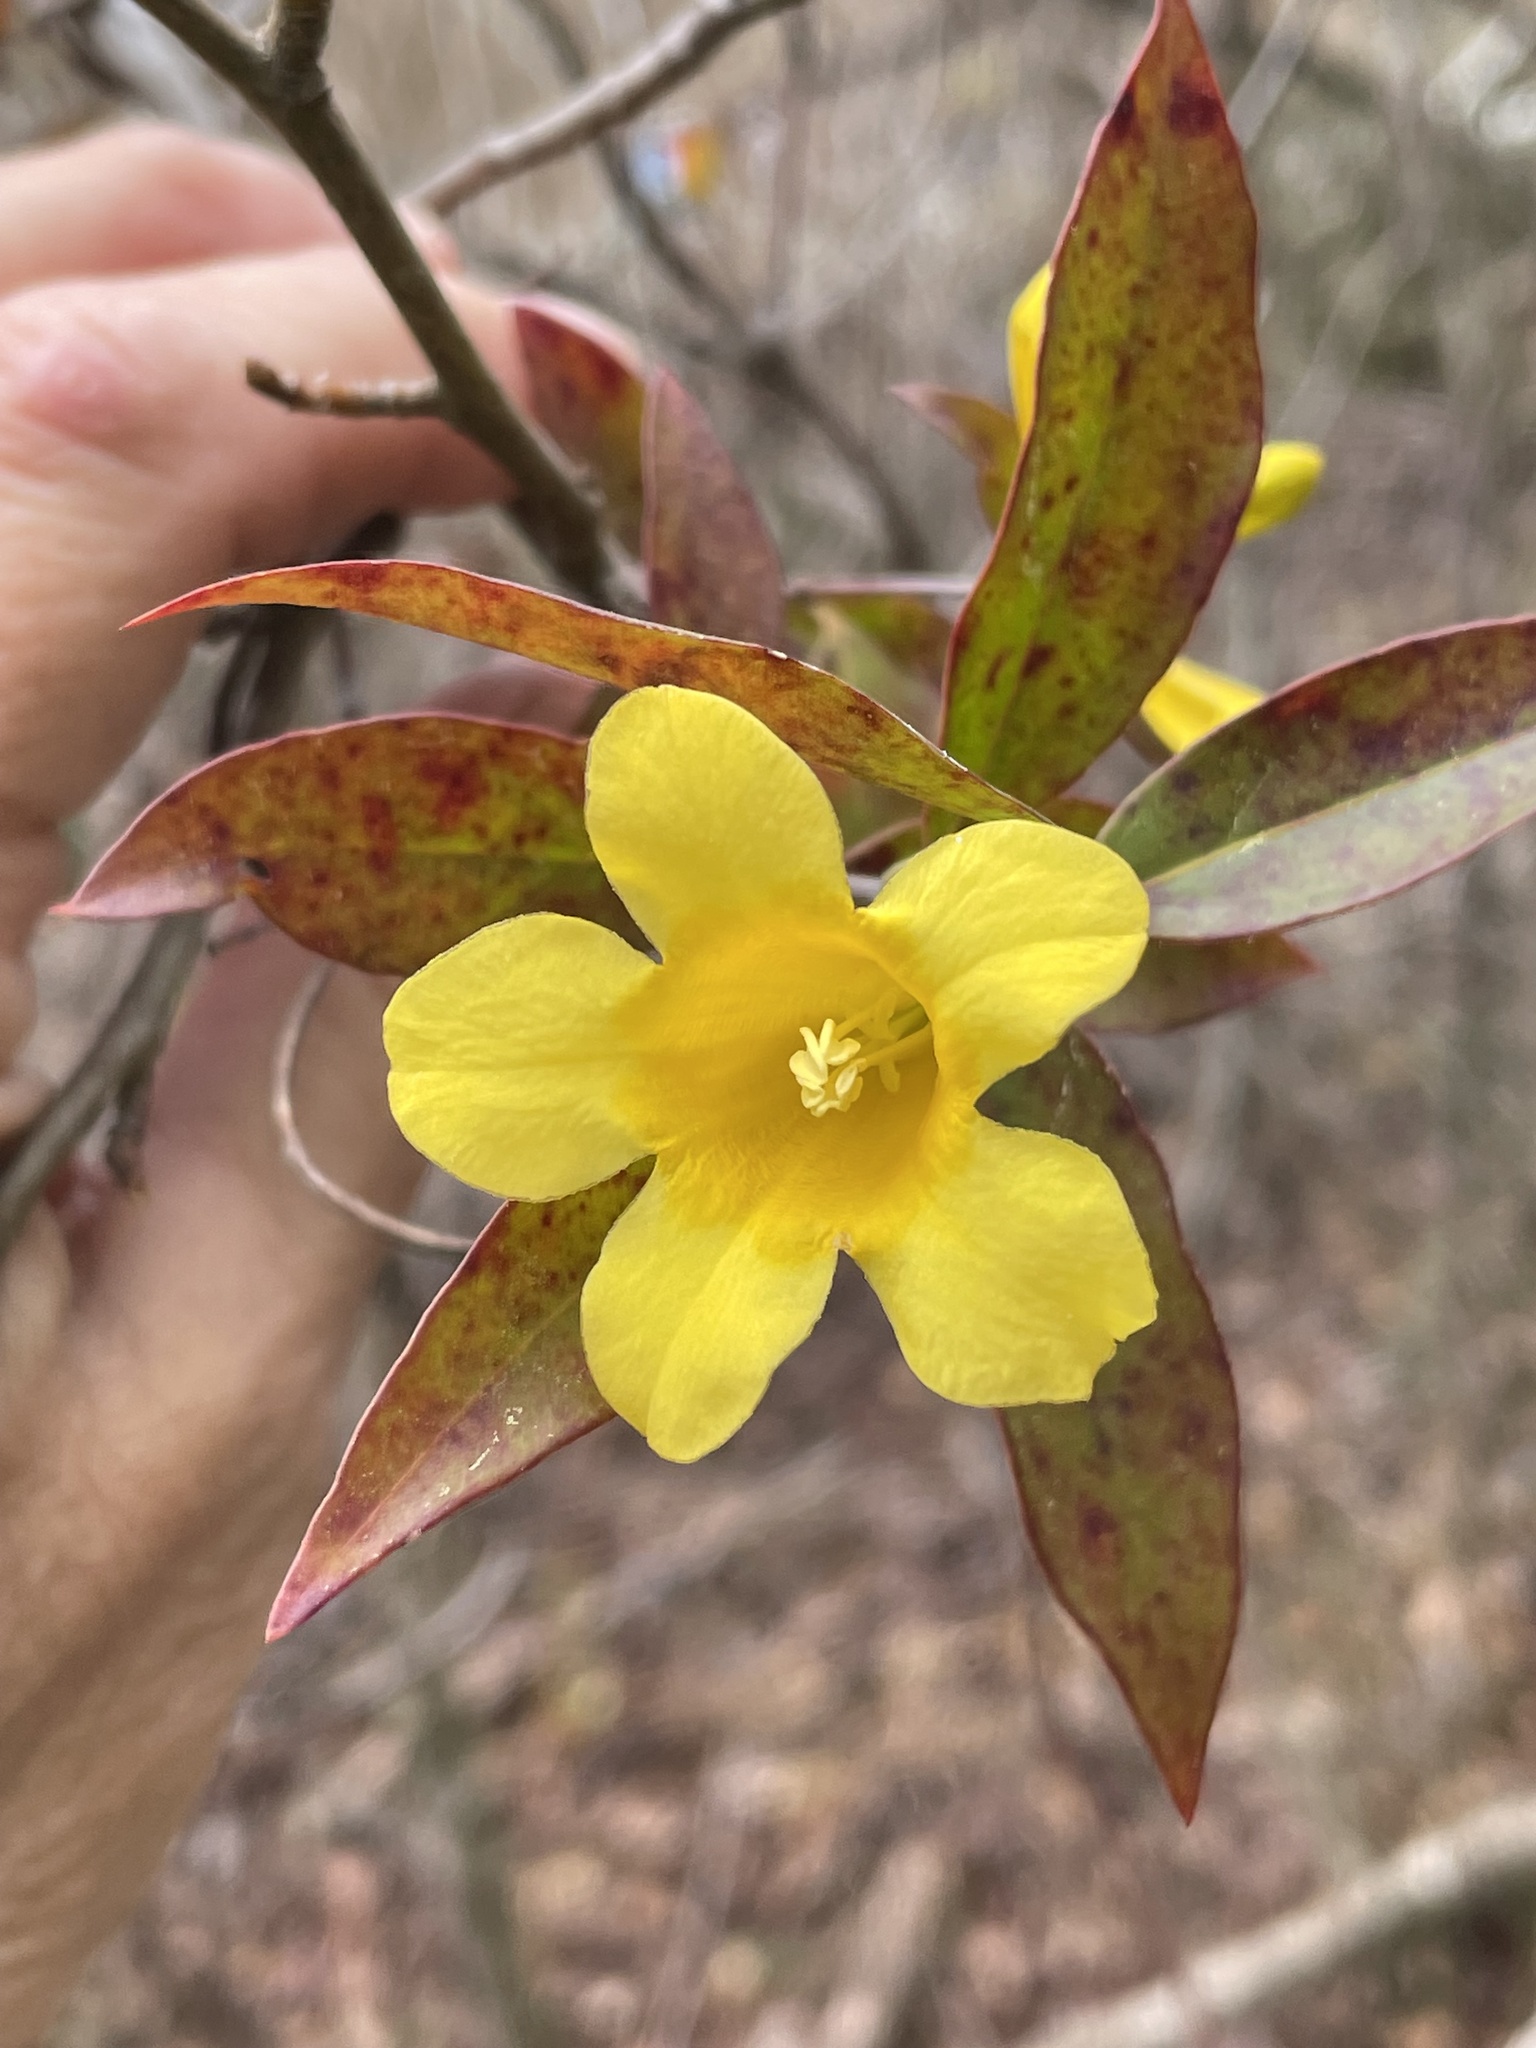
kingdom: Plantae
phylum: Tracheophyta
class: Magnoliopsida
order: Gentianales
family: Gelsemiaceae
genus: Gelsemium
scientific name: Gelsemium sempervirens
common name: Carolina-jasmine
